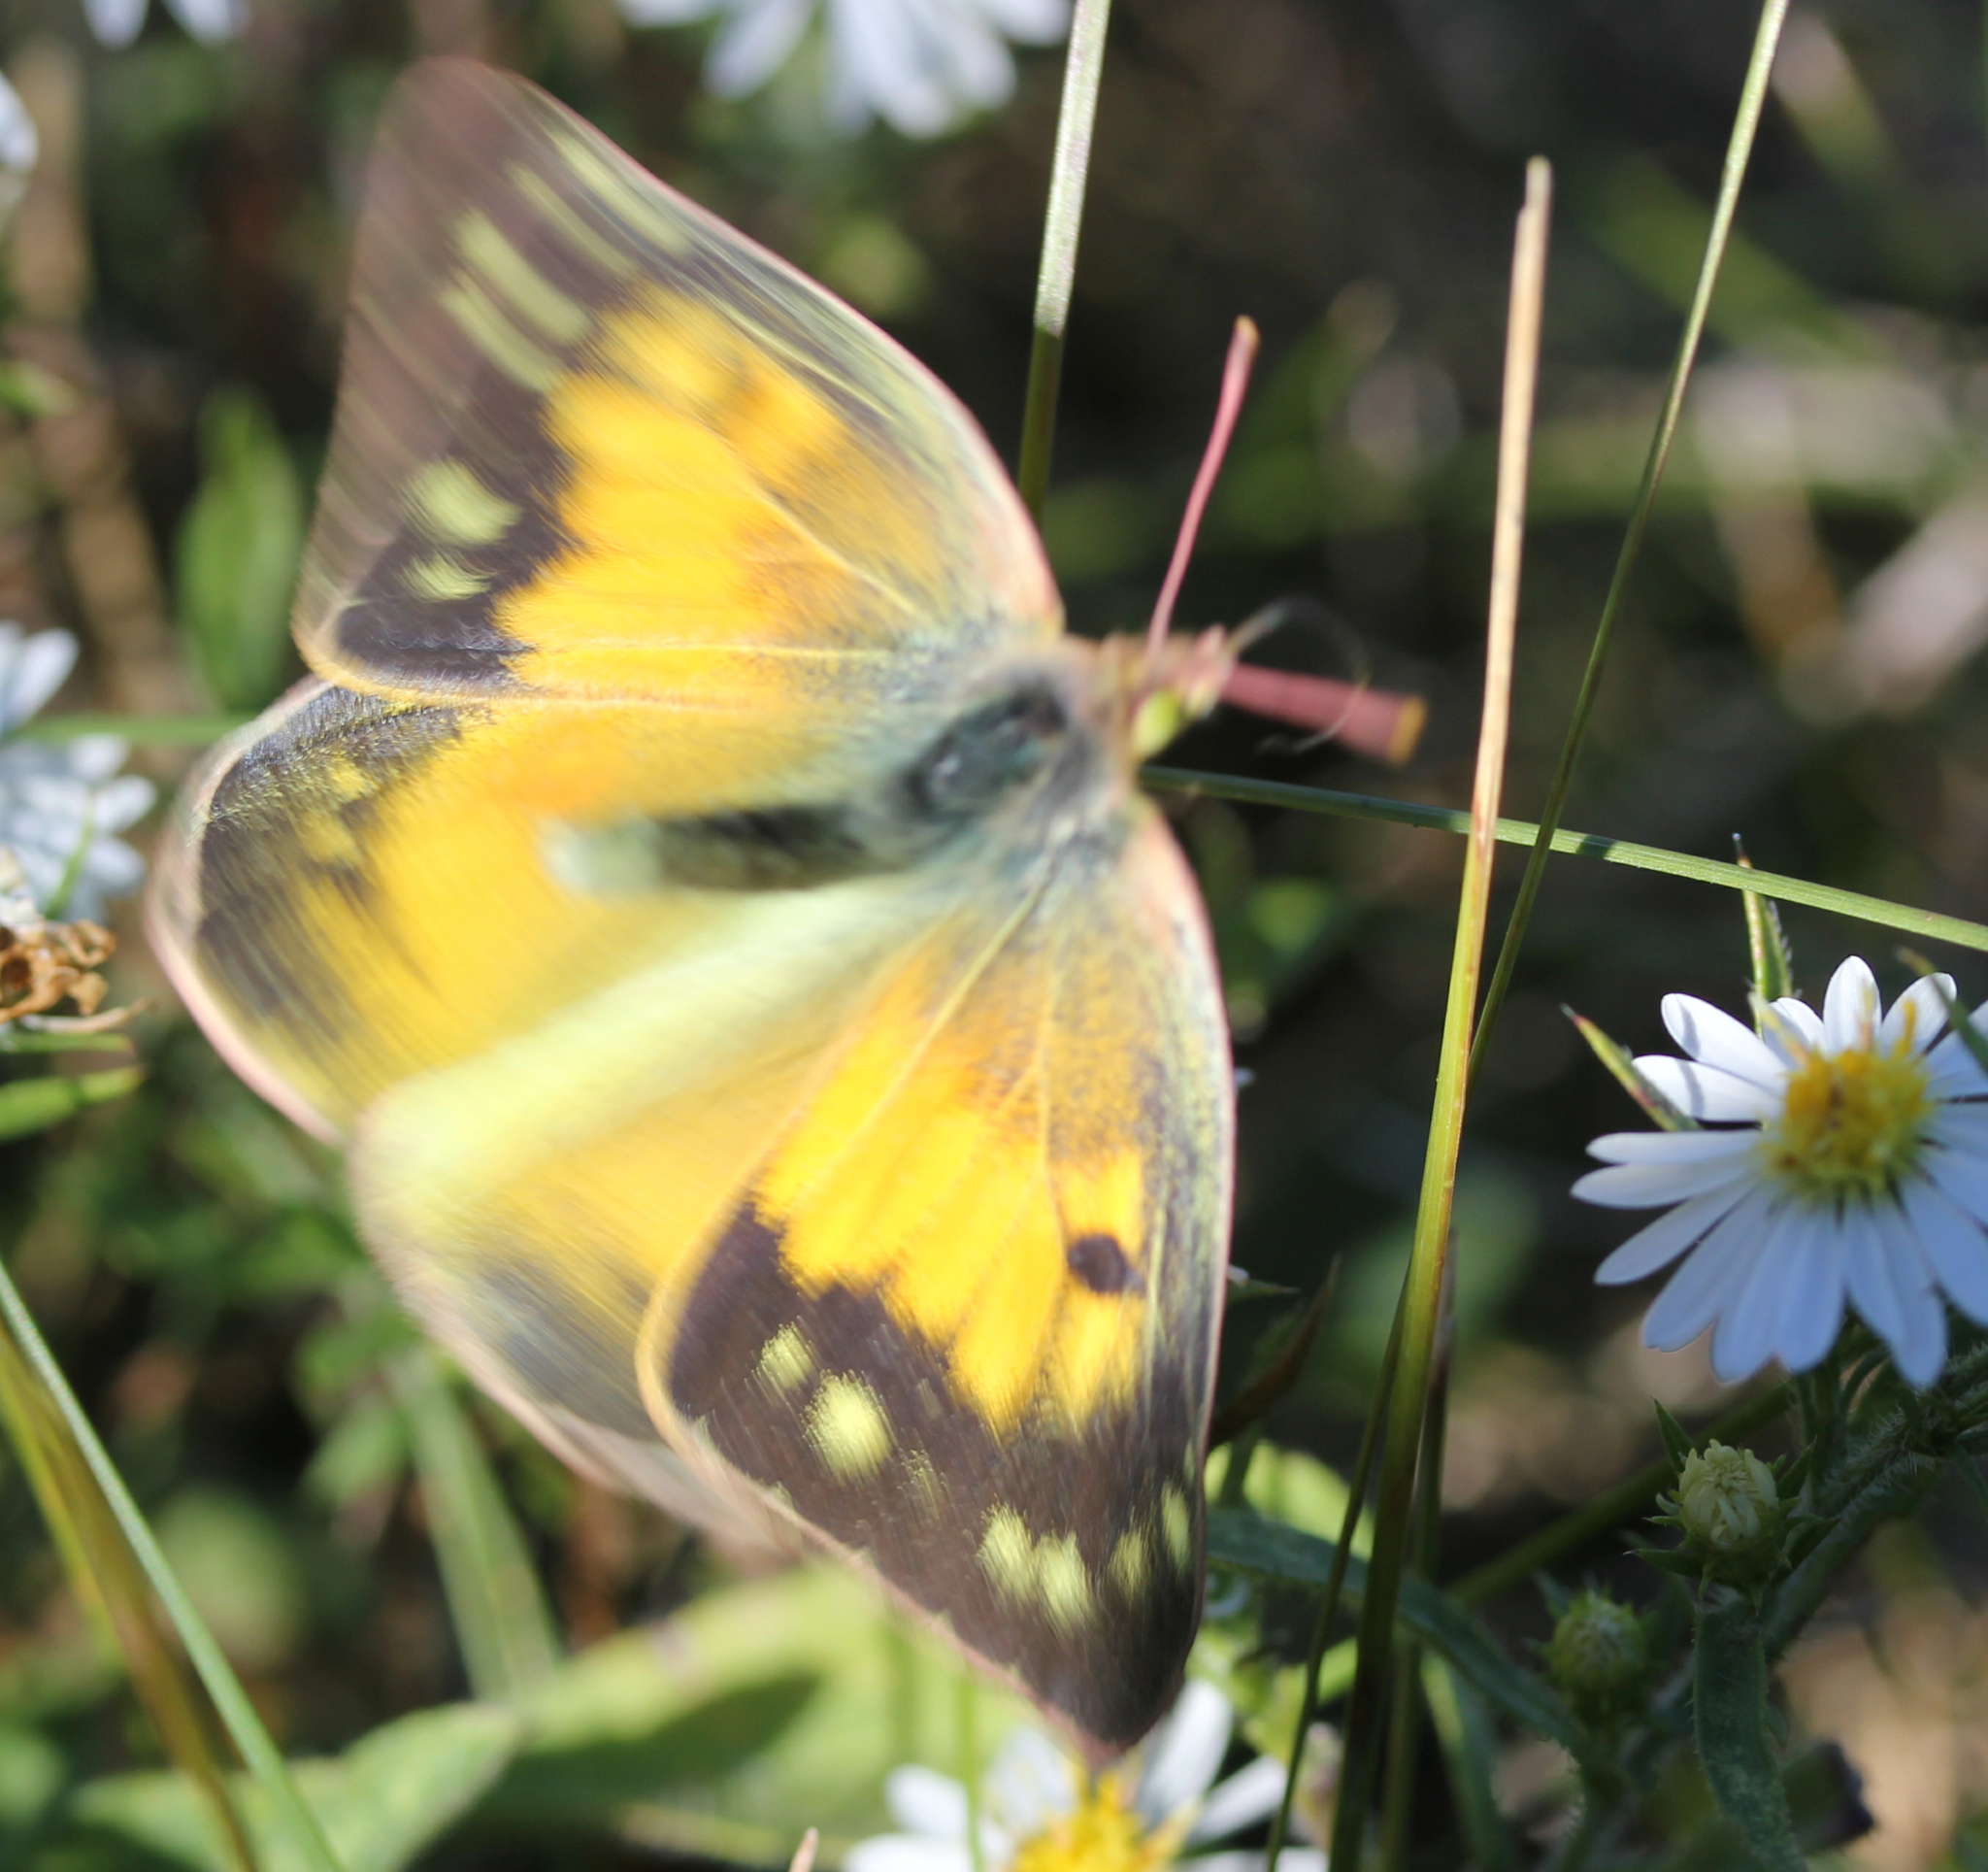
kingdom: Animalia
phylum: Arthropoda
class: Insecta
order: Lepidoptera
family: Pieridae
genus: Colias
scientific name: Colias eurytheme
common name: Alfalfa butterfly
